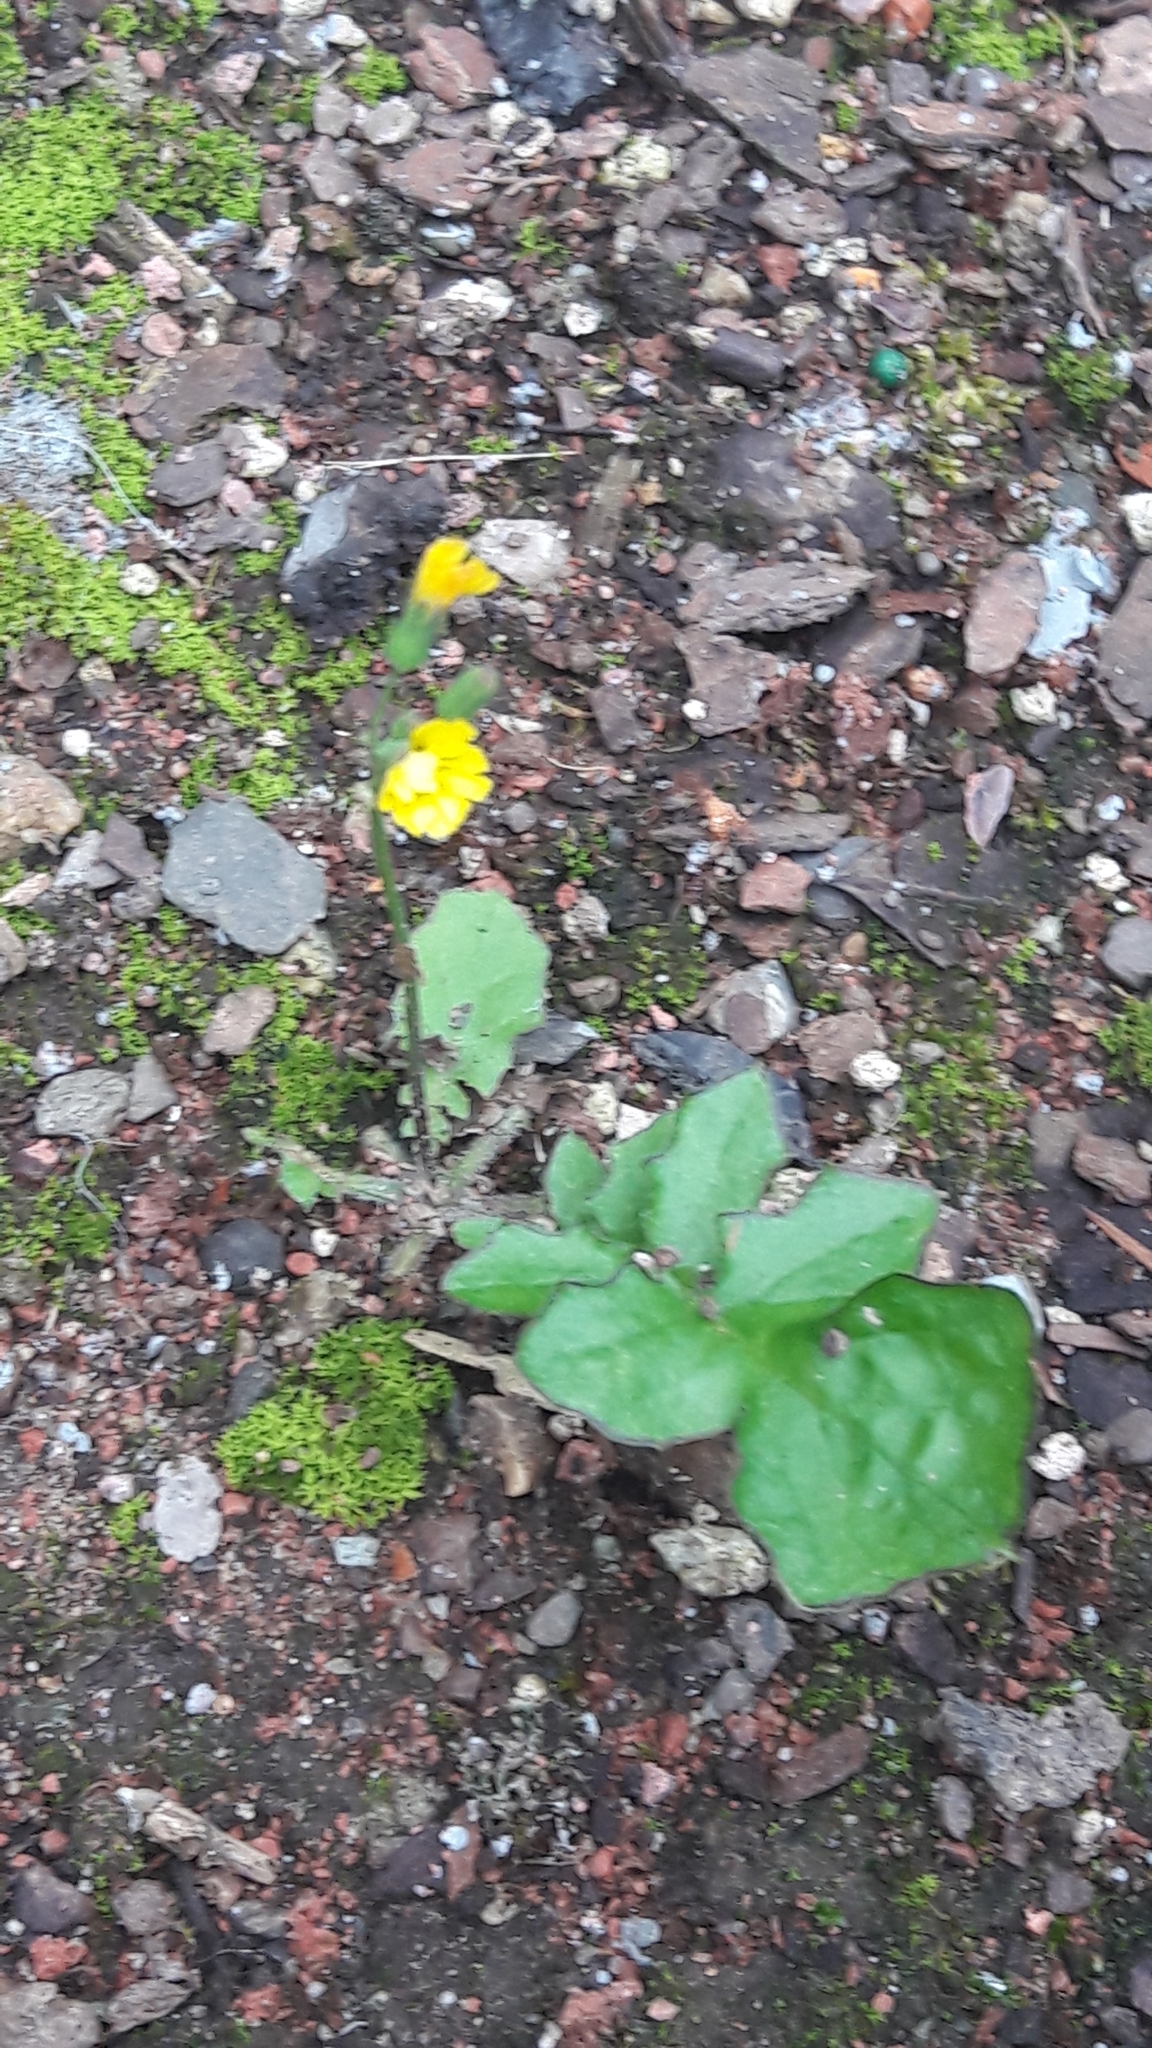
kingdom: Plantae
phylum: Tracheophyta
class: Magnoliopsida
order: Asterales
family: Asteraceae
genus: Youngia
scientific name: Youngia japonica
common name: Oriental false hawksbeard
